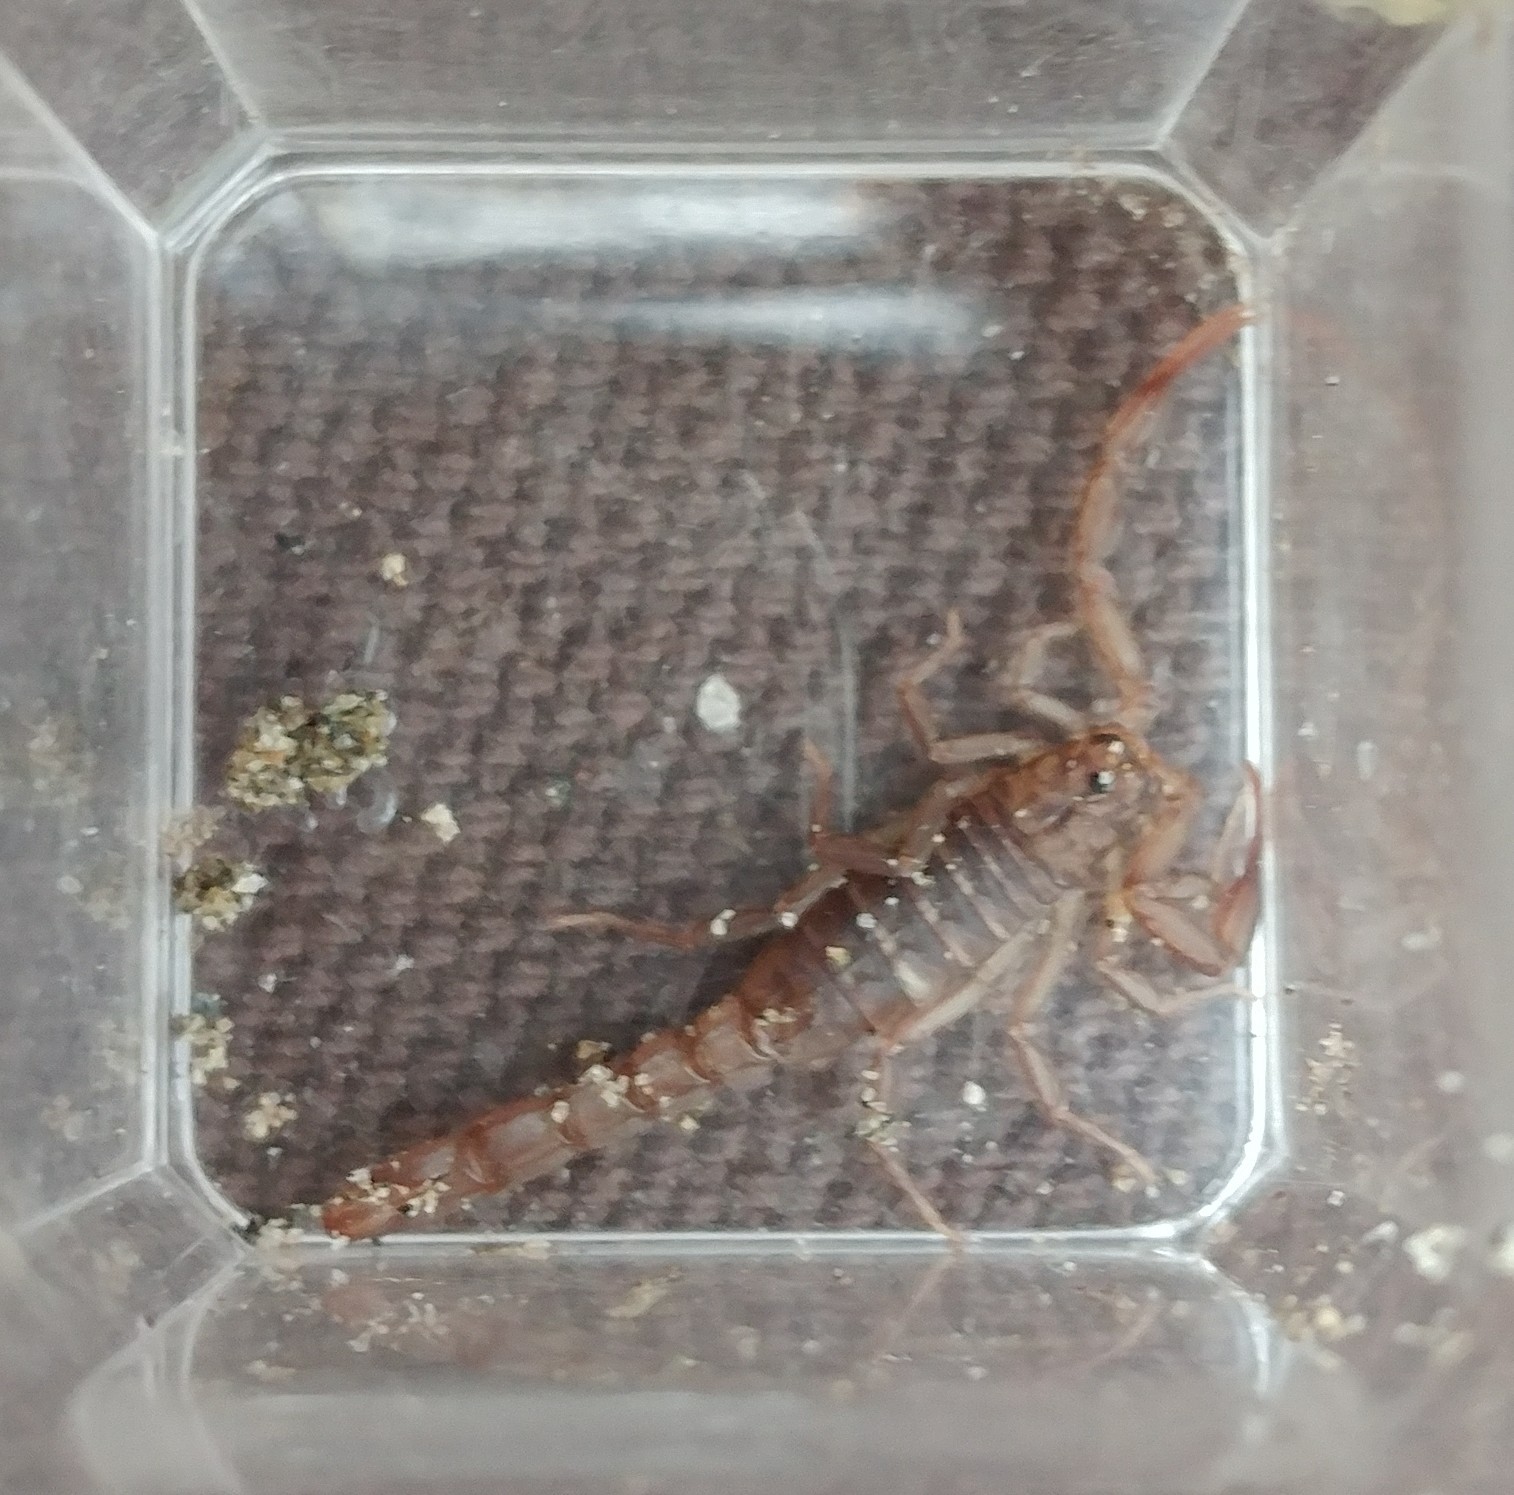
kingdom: Animalia
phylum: Arthropoda
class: Arachnida
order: Scorpiones
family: Vaejovidae
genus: Serradigitus
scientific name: Serradigitus gertschi
